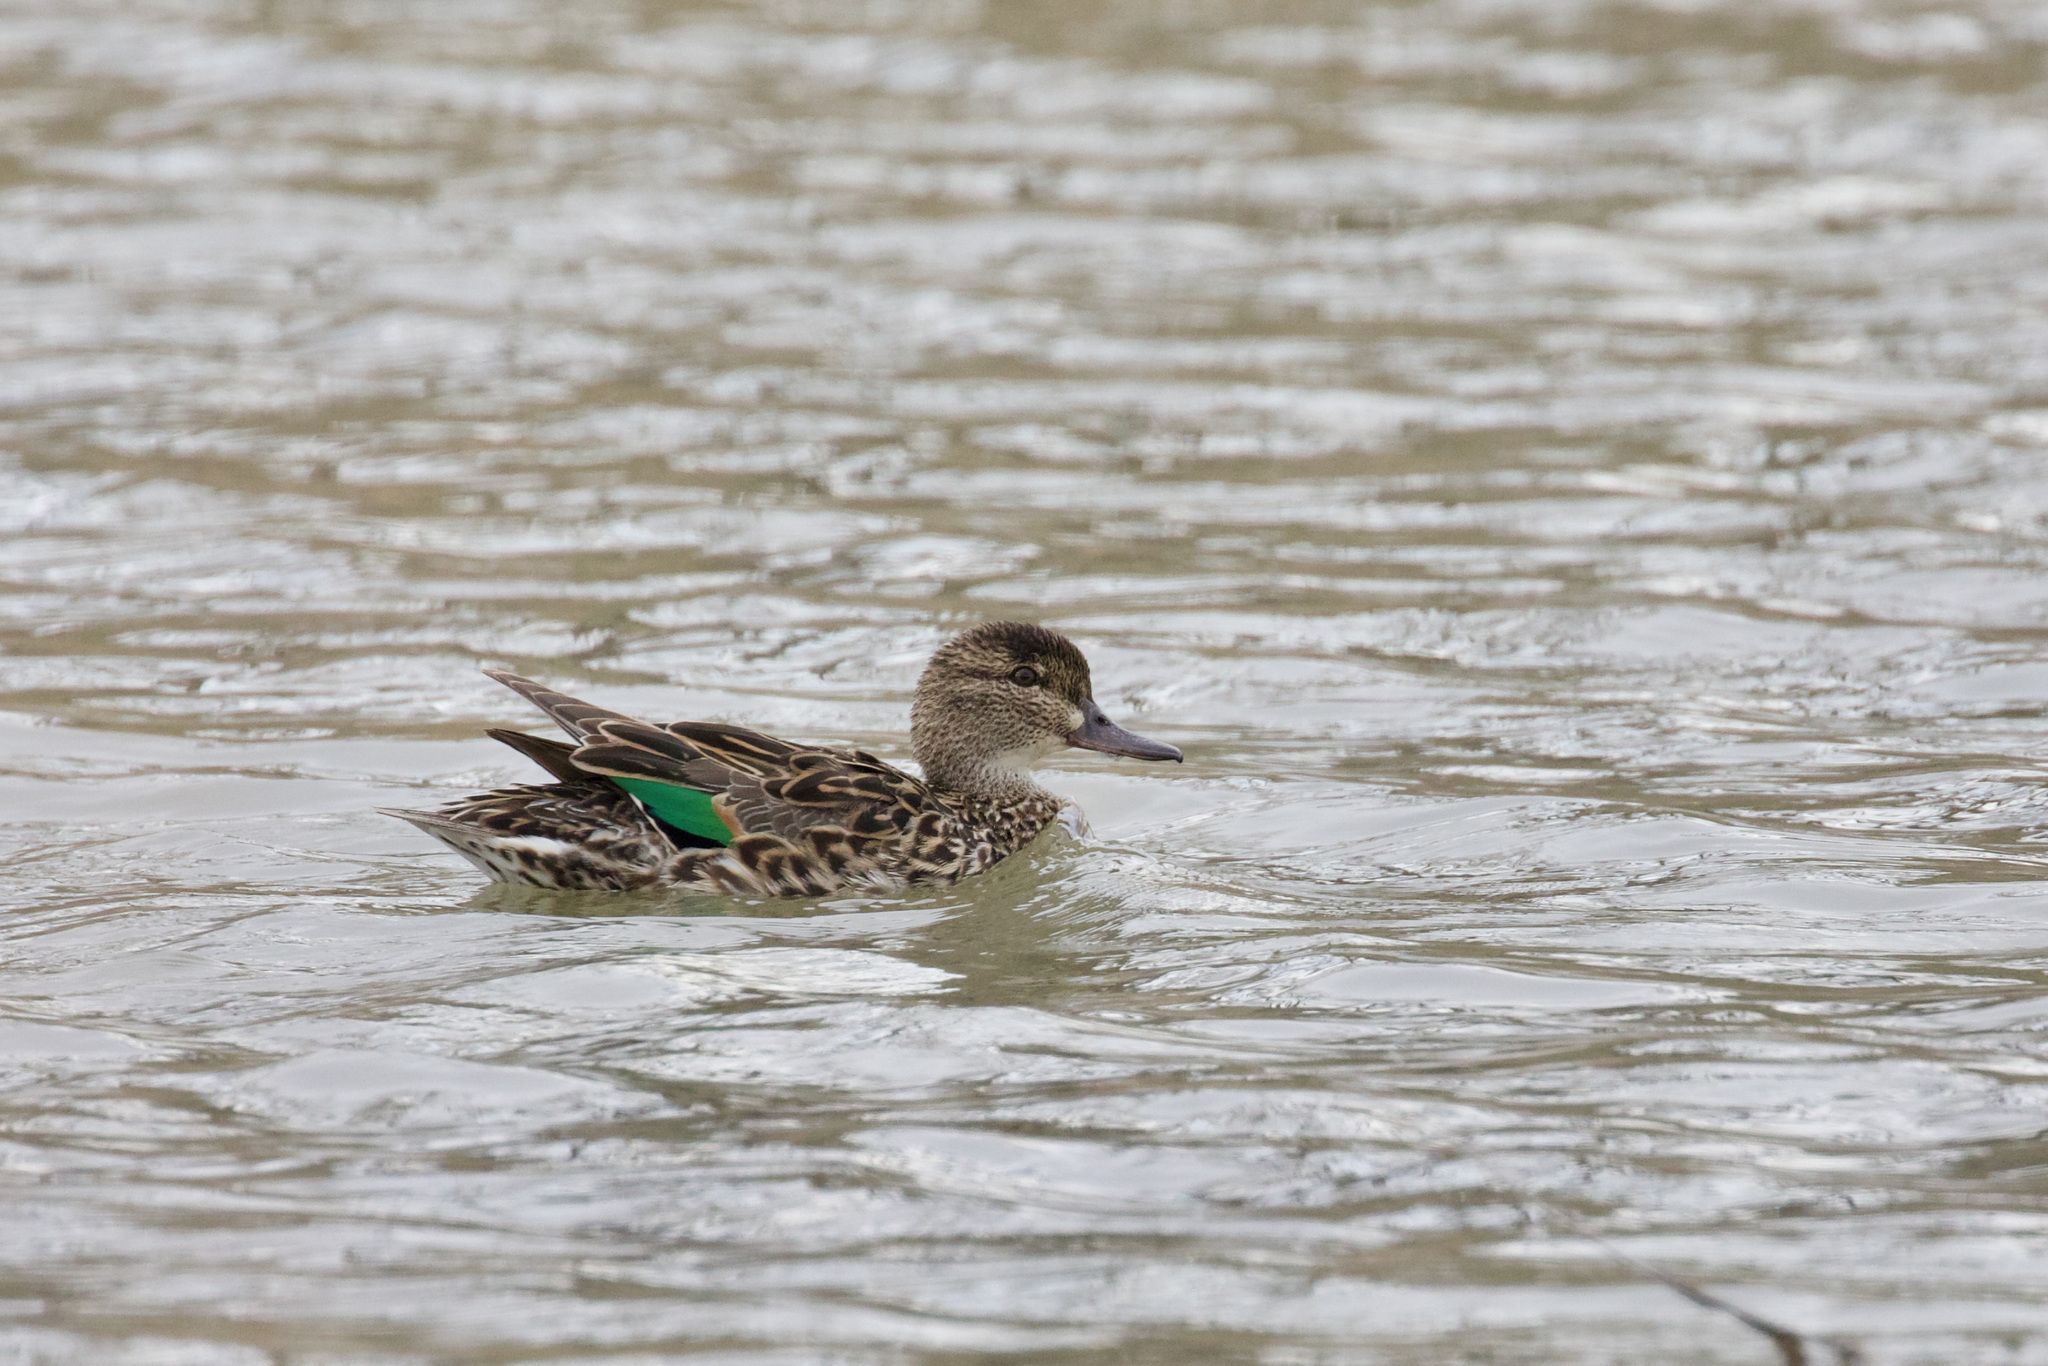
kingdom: Animalia
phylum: Chordata
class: Aves
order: Anseriformes
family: Anatidae
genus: Anas
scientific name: Anas crecca
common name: Eurasian teal
